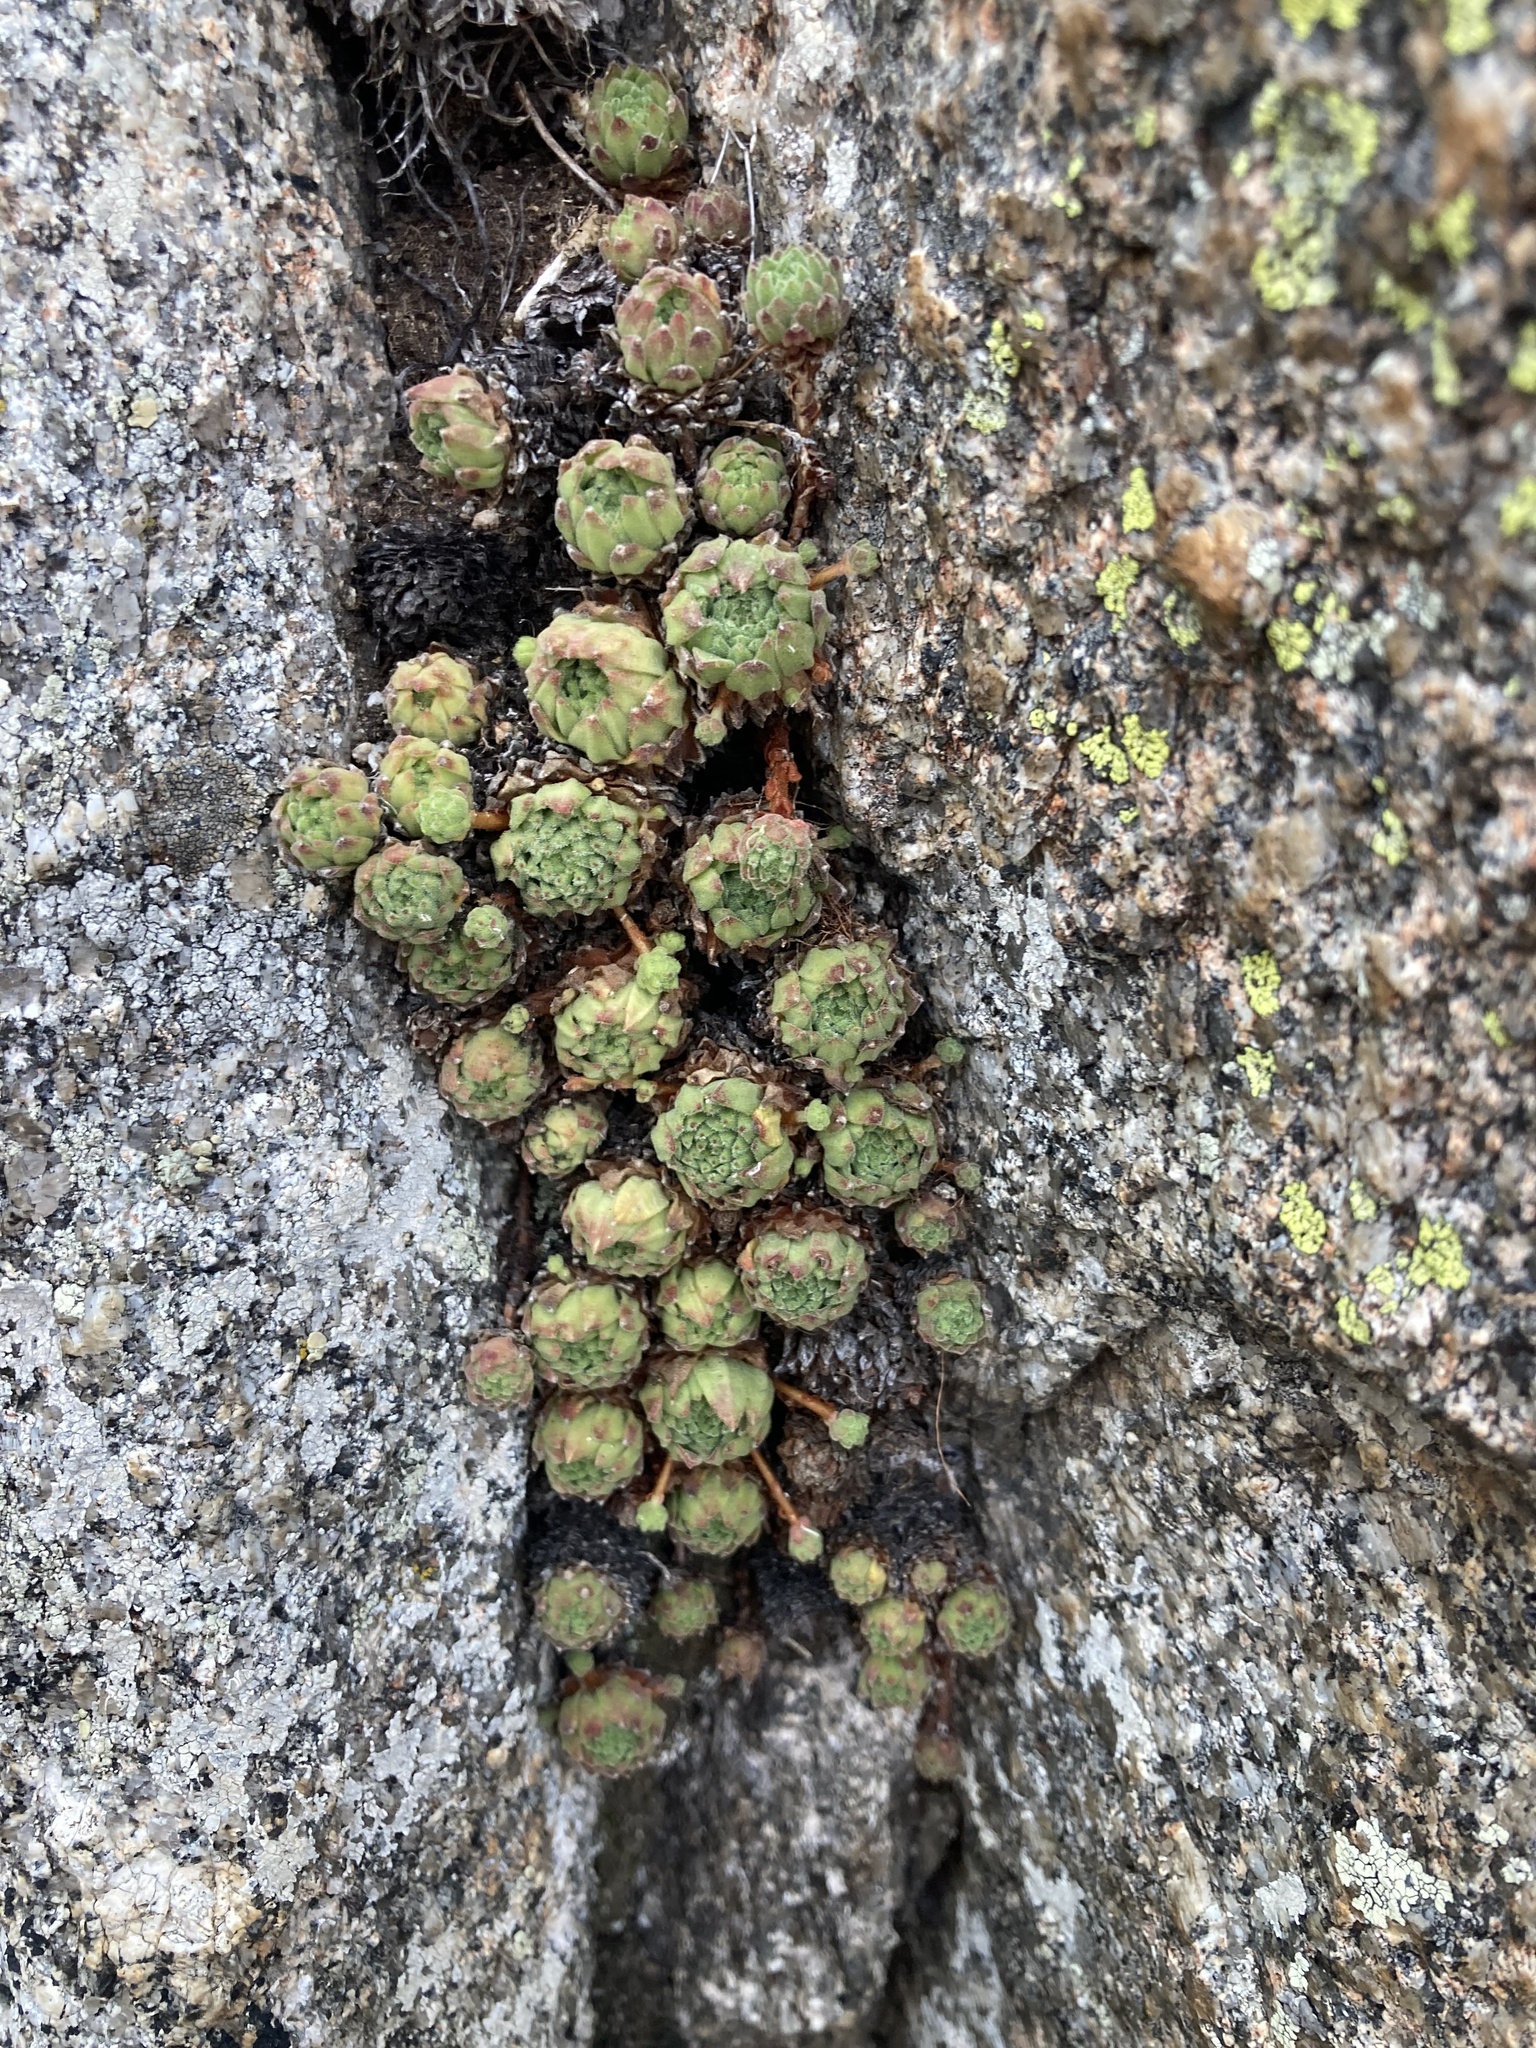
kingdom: Plantae
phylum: Tracheophyta
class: Magnoliopsida
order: Saxifragales
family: Crassulaceae
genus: Sempervivum
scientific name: Sempervivum montanum
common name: Mountain house-leek
